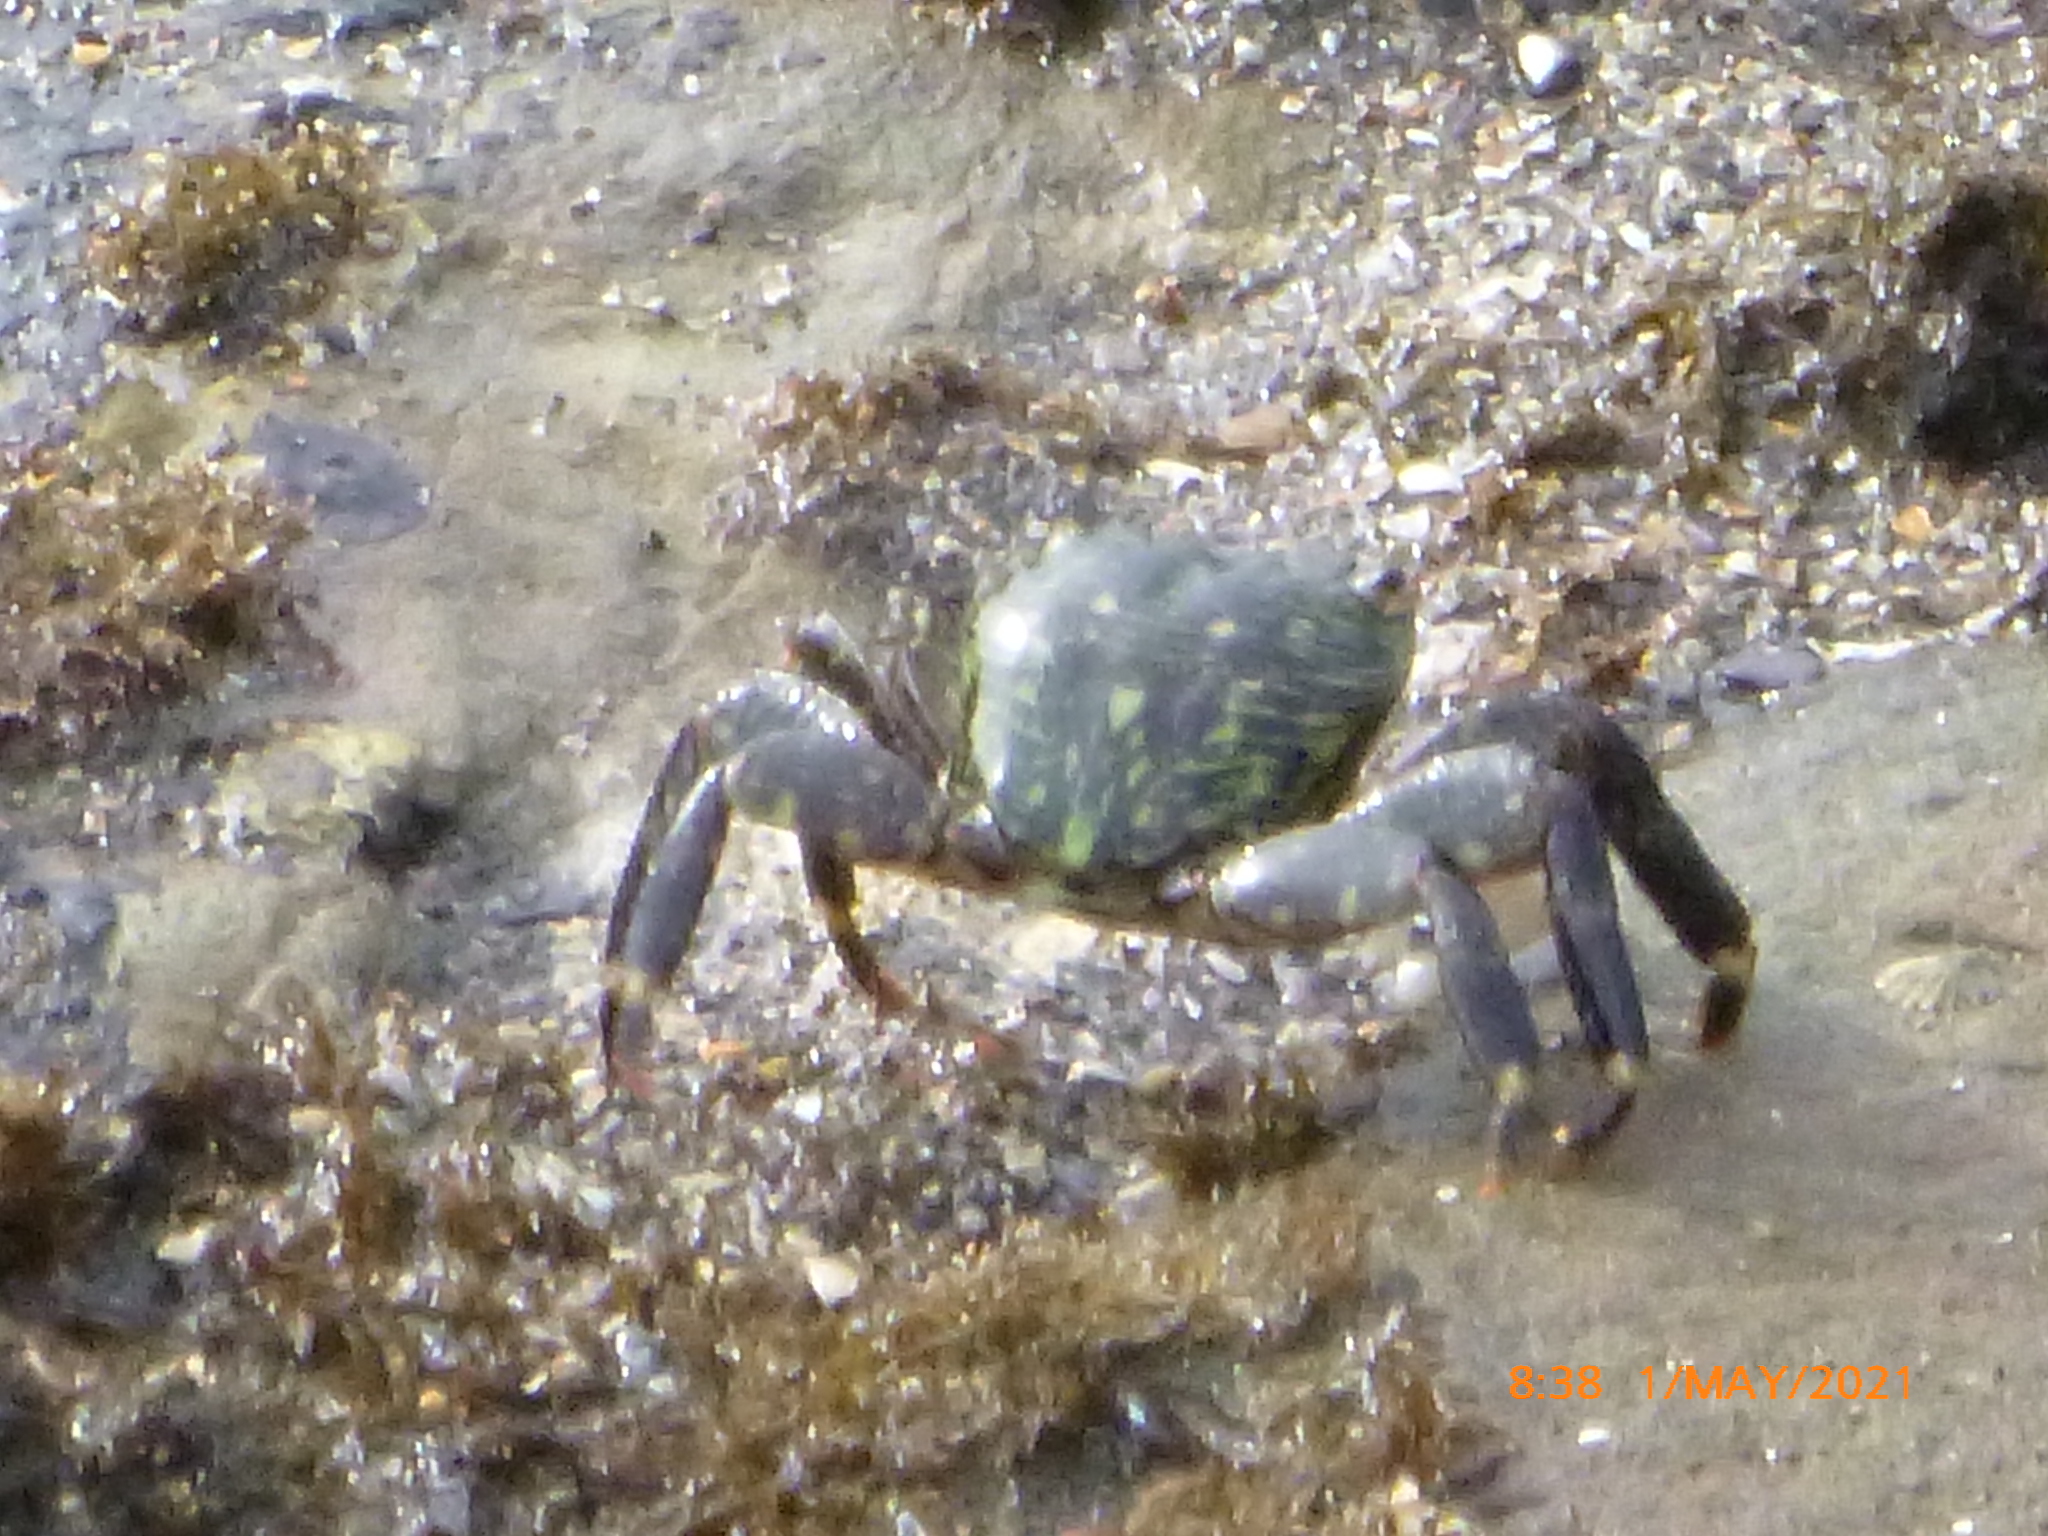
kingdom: Animalia
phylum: Arthropoda
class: Malacostraca
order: Decapoda
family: Grapsidae
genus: Pachygrapsus
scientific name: Pachygrapsus crassipes
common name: Striped shore crab
